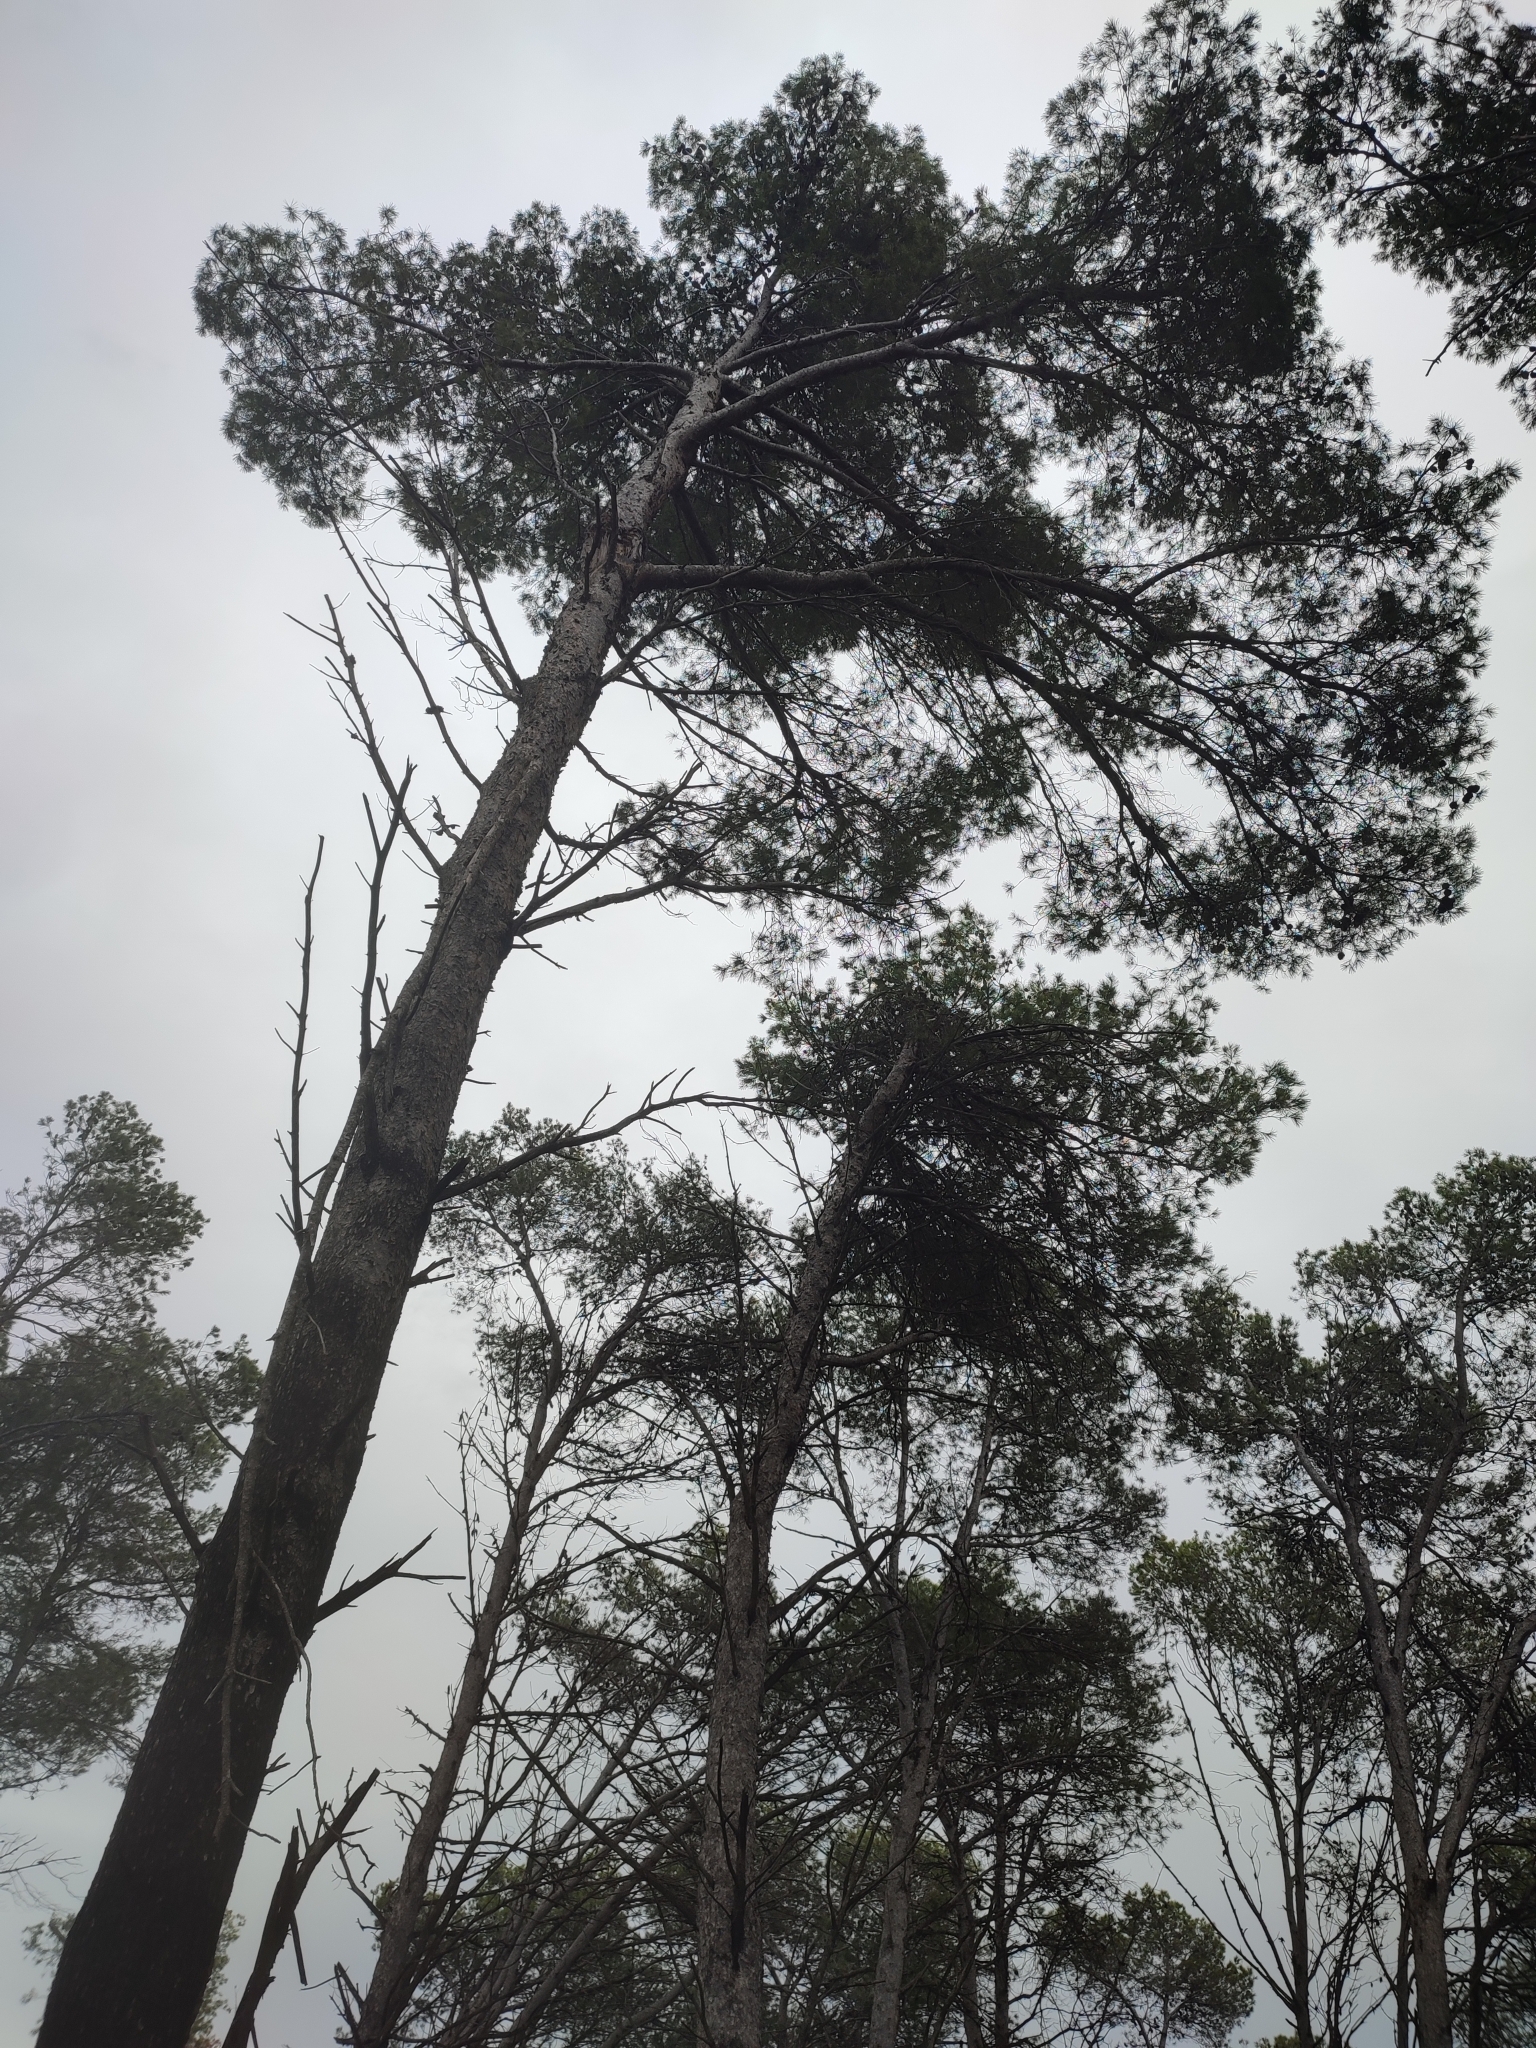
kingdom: Plantae
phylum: Tracheophyta
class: Pinopsida
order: Pinales
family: Pinaceae
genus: Pinus
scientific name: Pinus halepensis
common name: Aleppo pine
